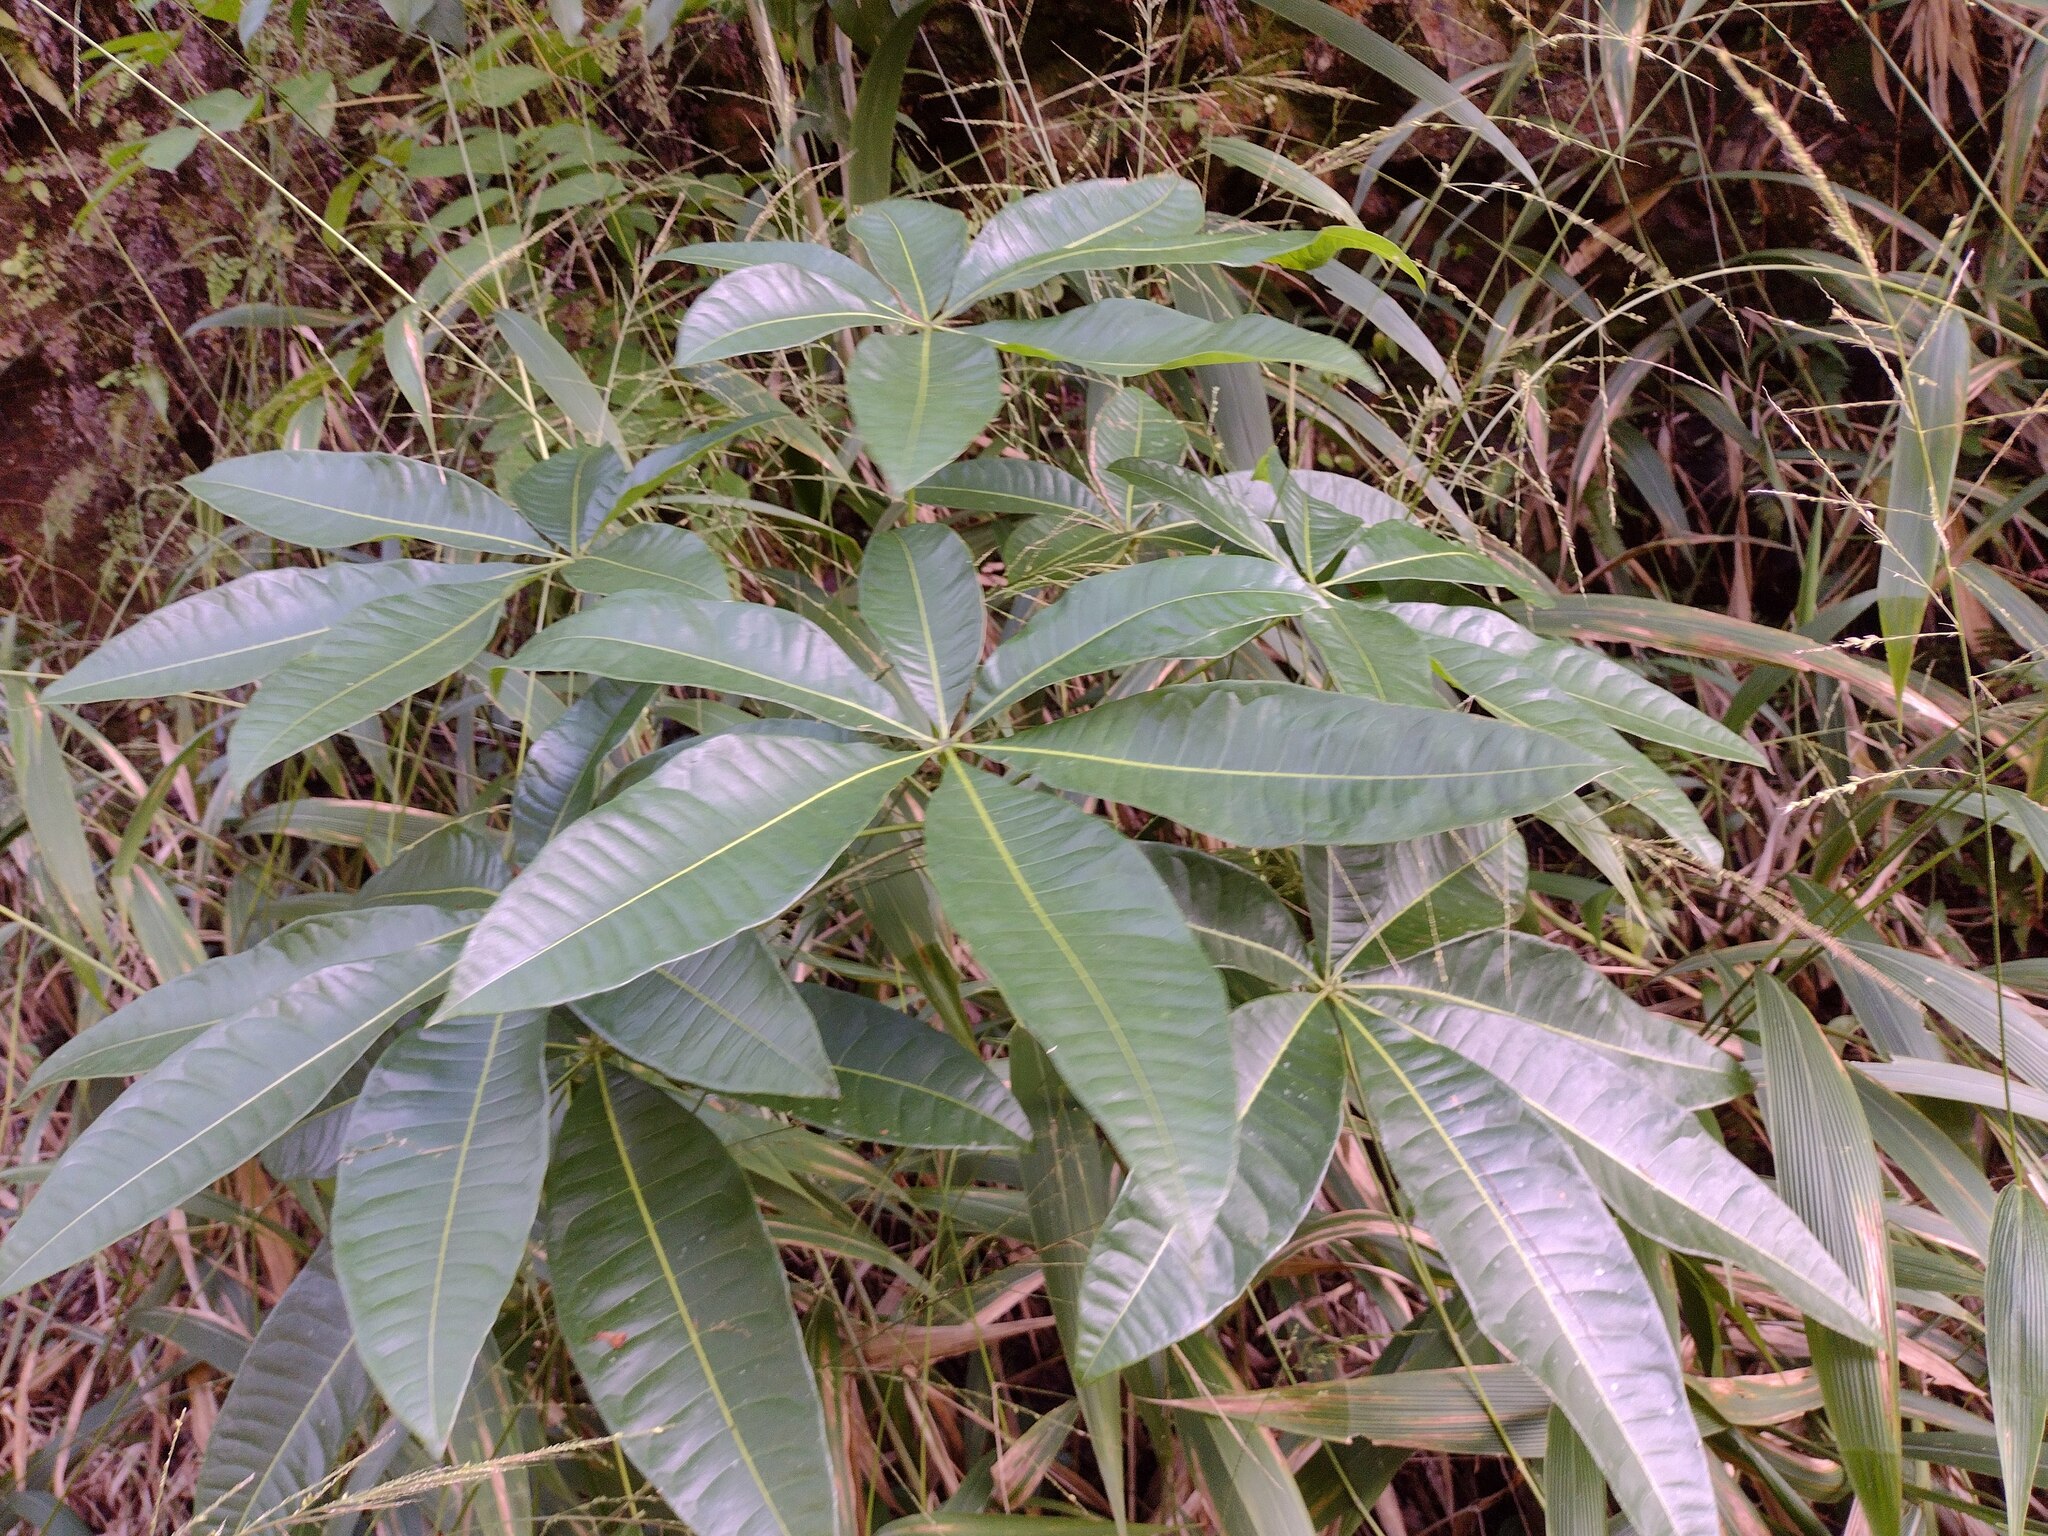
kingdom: Plantae
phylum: Tracheophyta
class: Magnoliopsida
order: Malvales
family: Malvaceae
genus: Pachira
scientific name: Pachira aquatica
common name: Provision-tree
